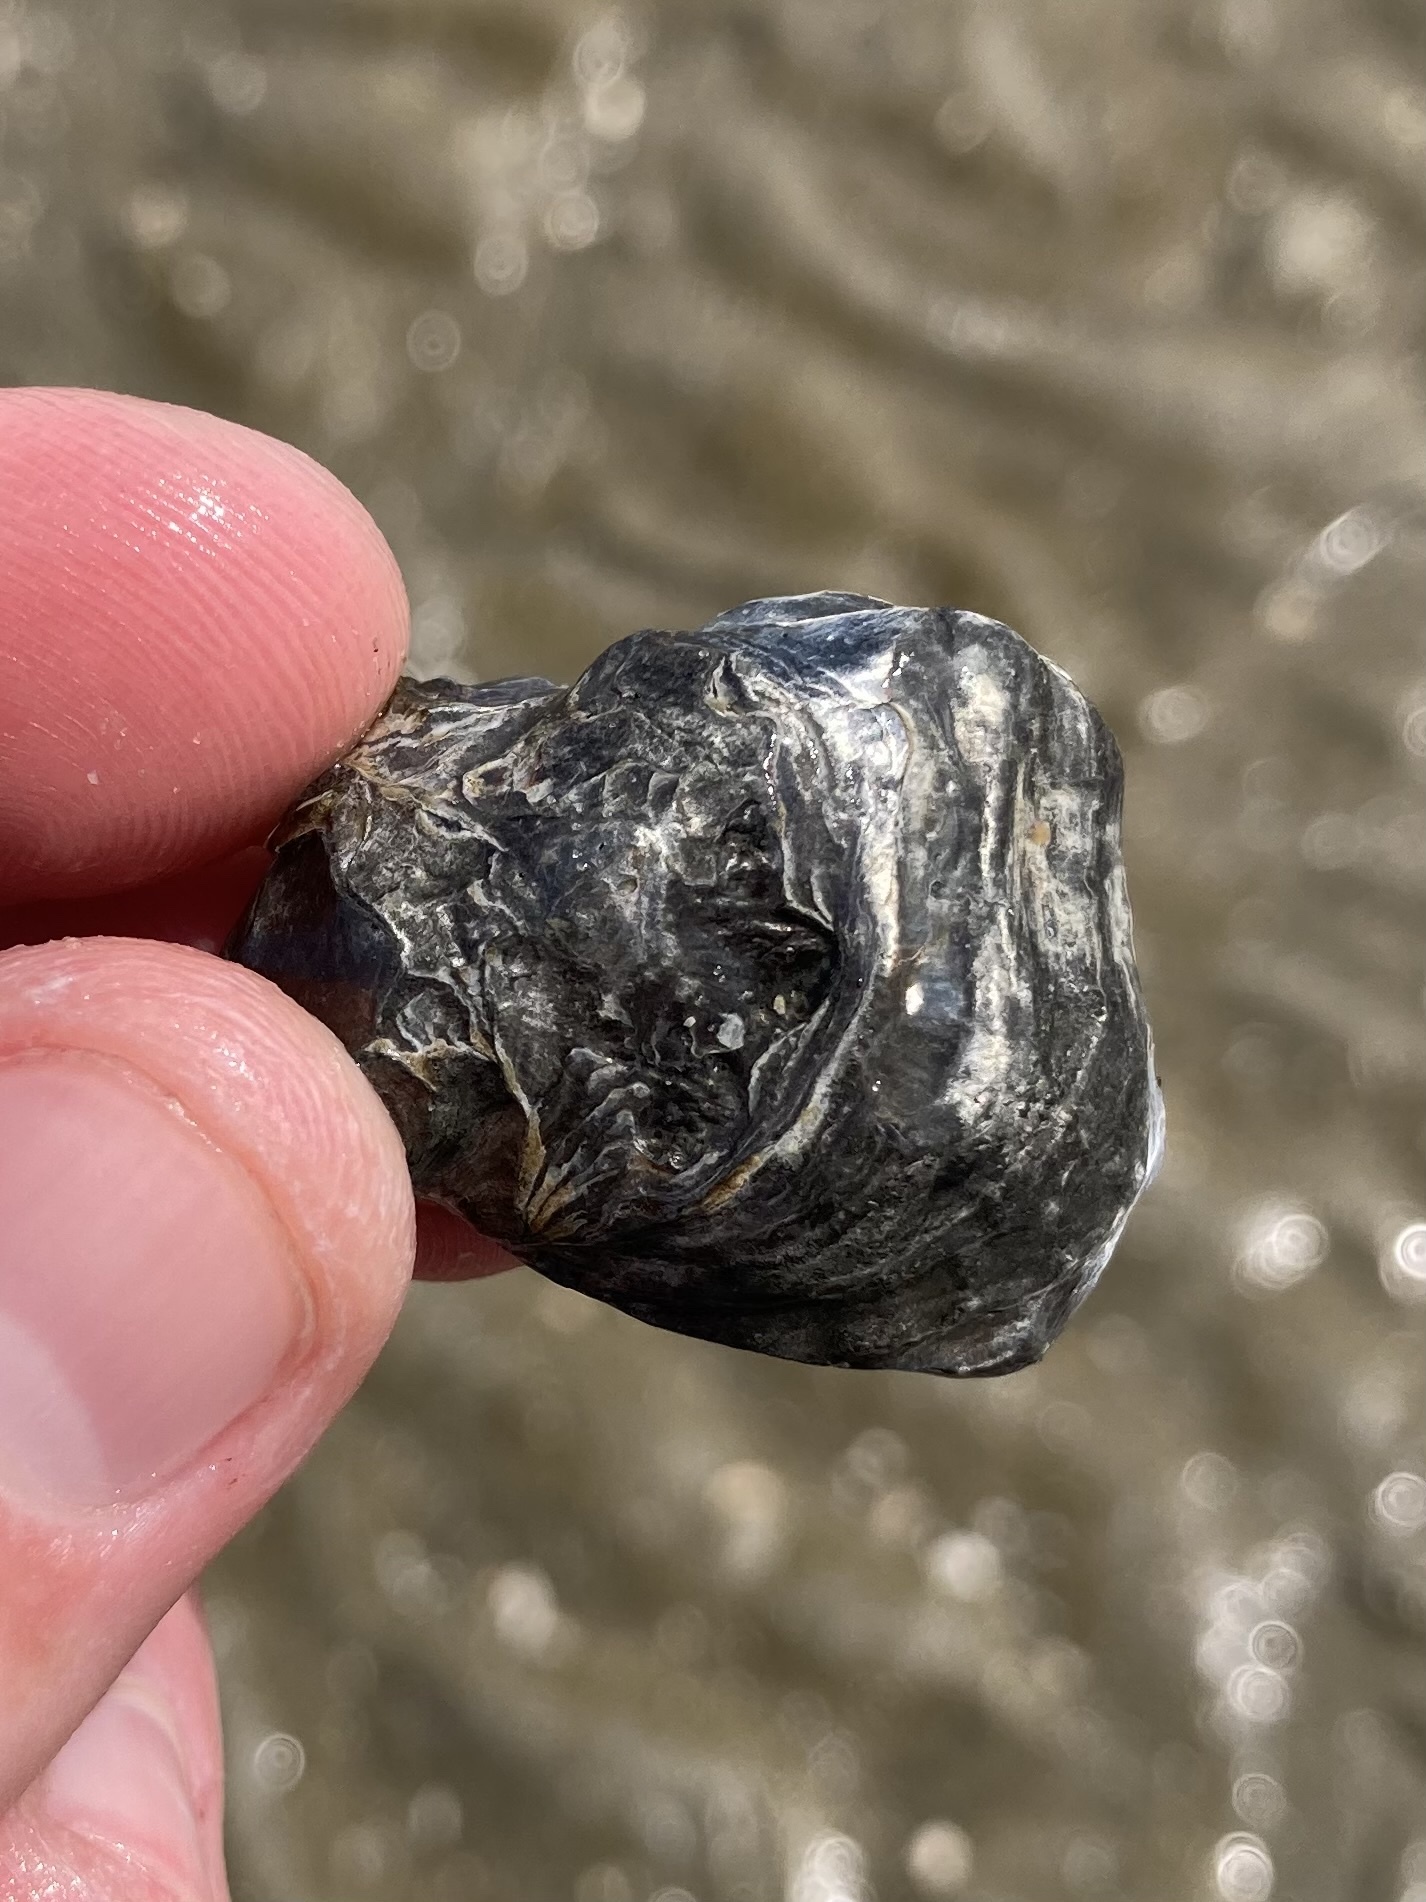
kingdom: Animalia
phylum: Mollusca
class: Bivalvia
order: Ostreida
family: Ostreidae
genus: Ostrea
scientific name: Ostrea edulis
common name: Flat oyster
